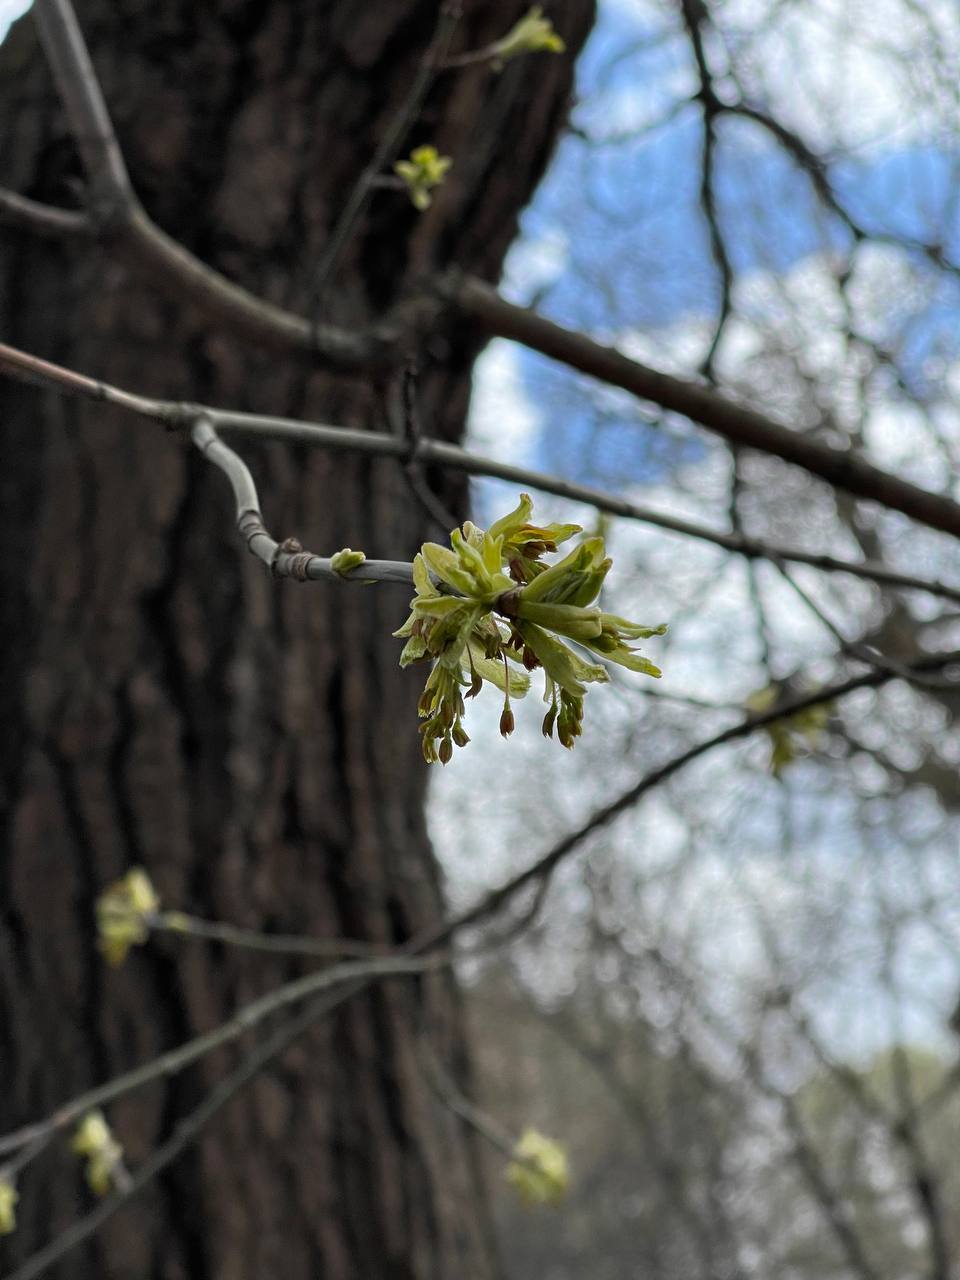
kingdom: Plantae
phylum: Tracheophyta
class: Magnoliopsida
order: Sapindales
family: Sapindaceae
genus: Acer
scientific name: Acer negundo
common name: Ashleaf maple
